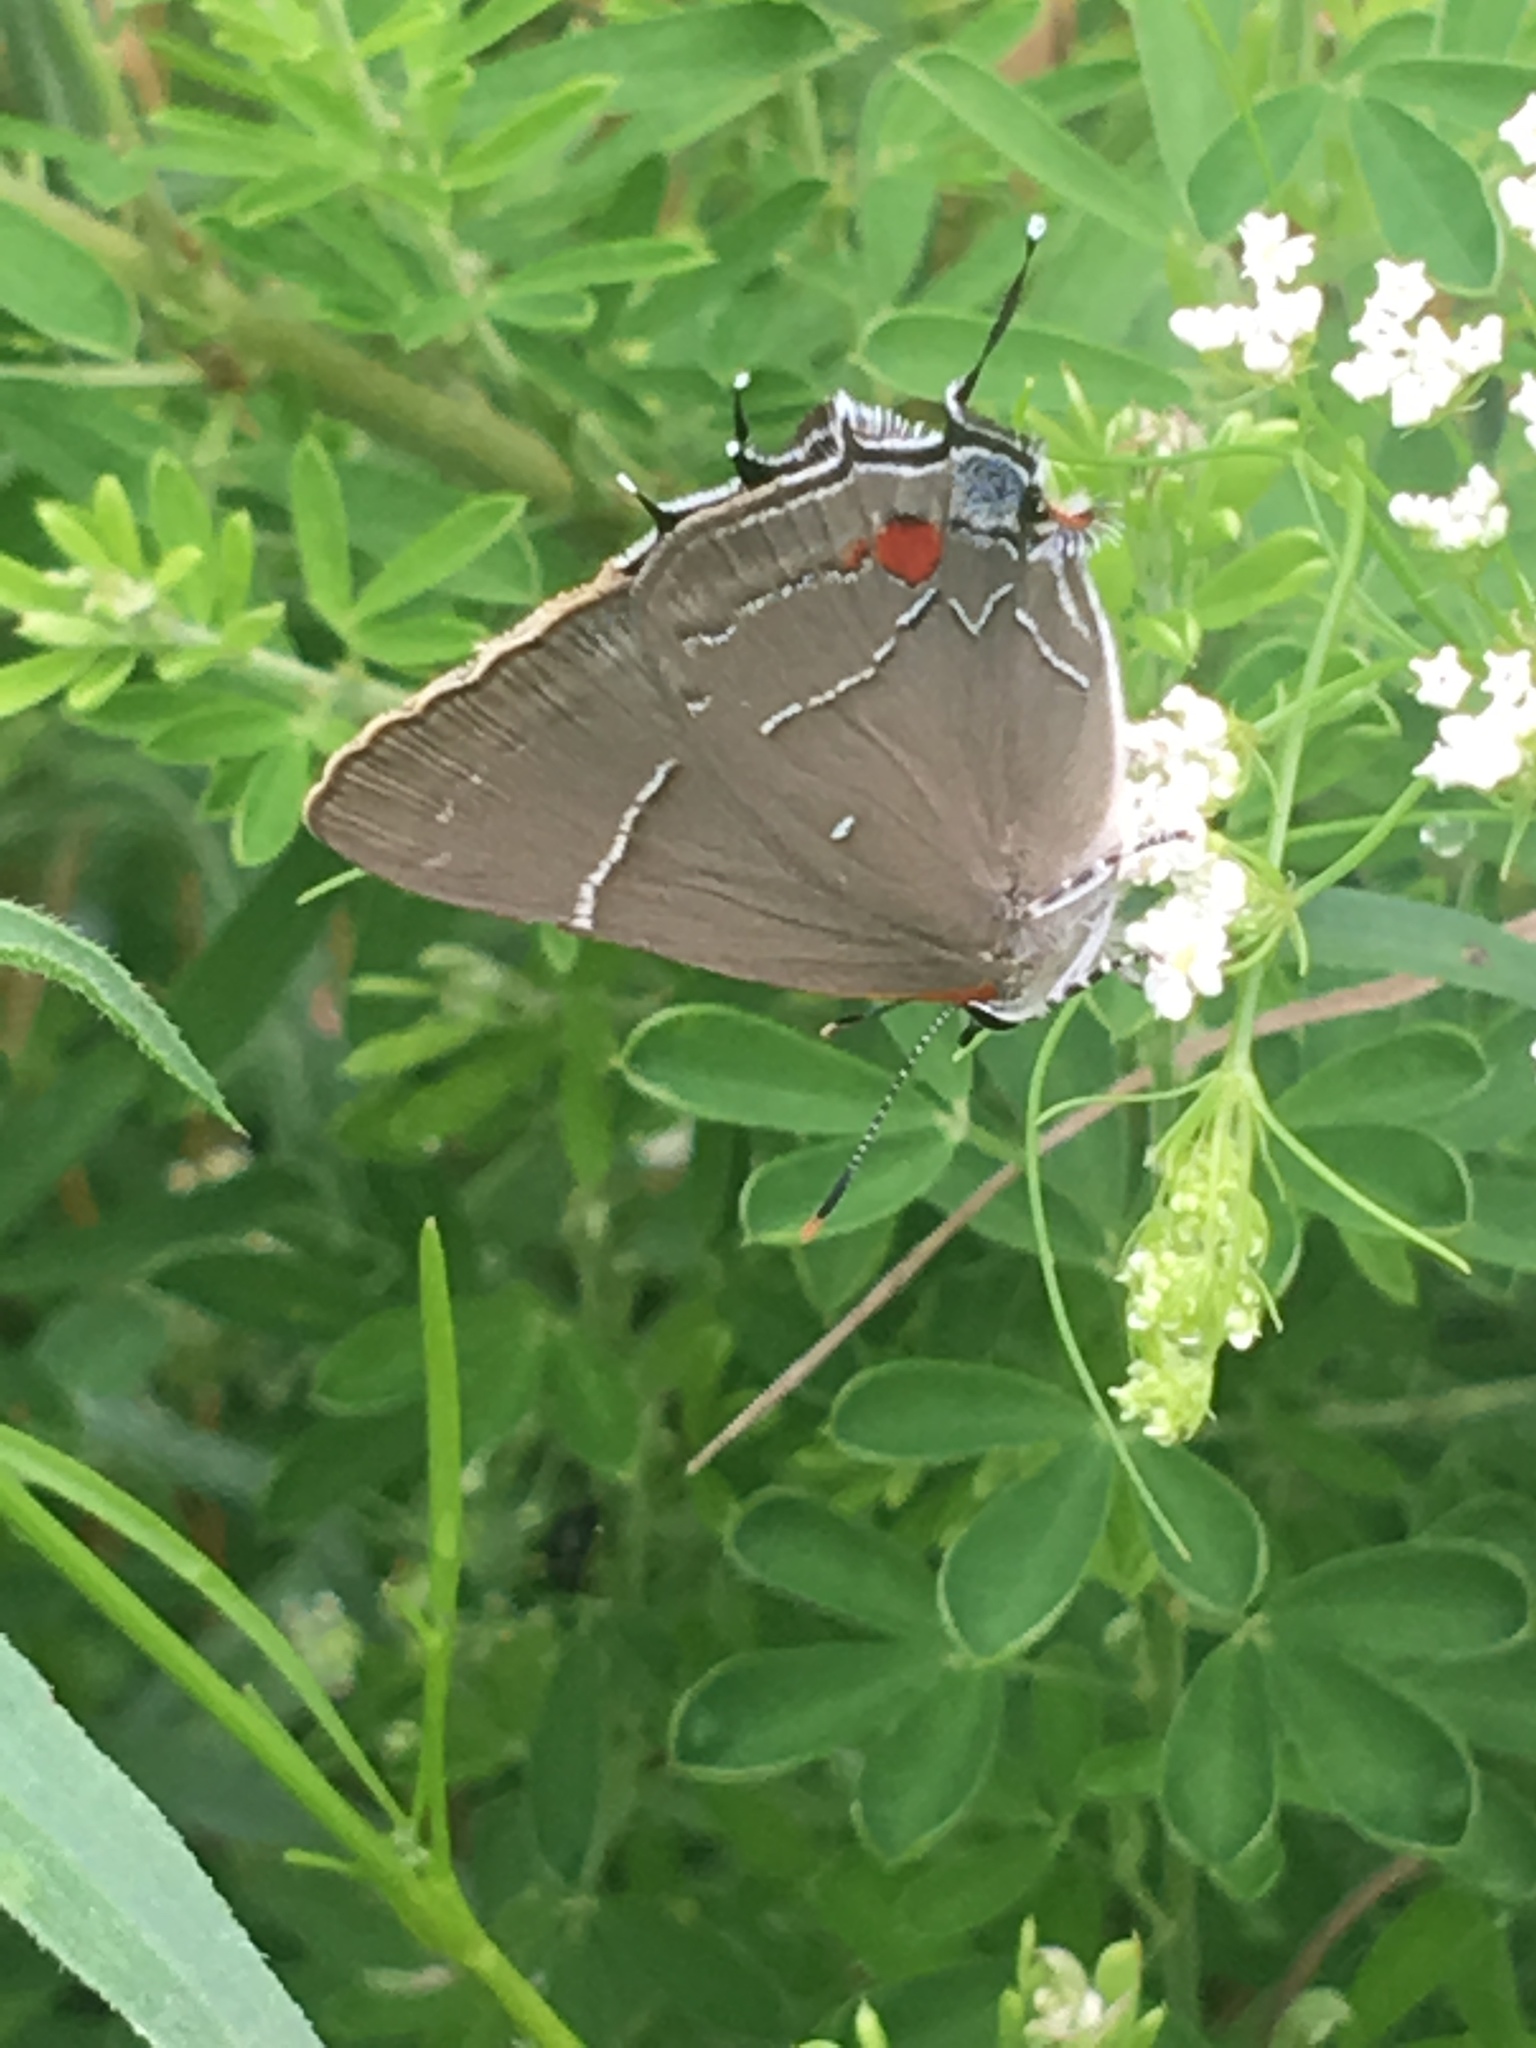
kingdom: Animalia
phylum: Arthropoda
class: Insecta
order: Lepidoptera
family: Lycaenidae
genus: Parrhasius
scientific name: Parrhasius m-album
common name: White m hairstreak
